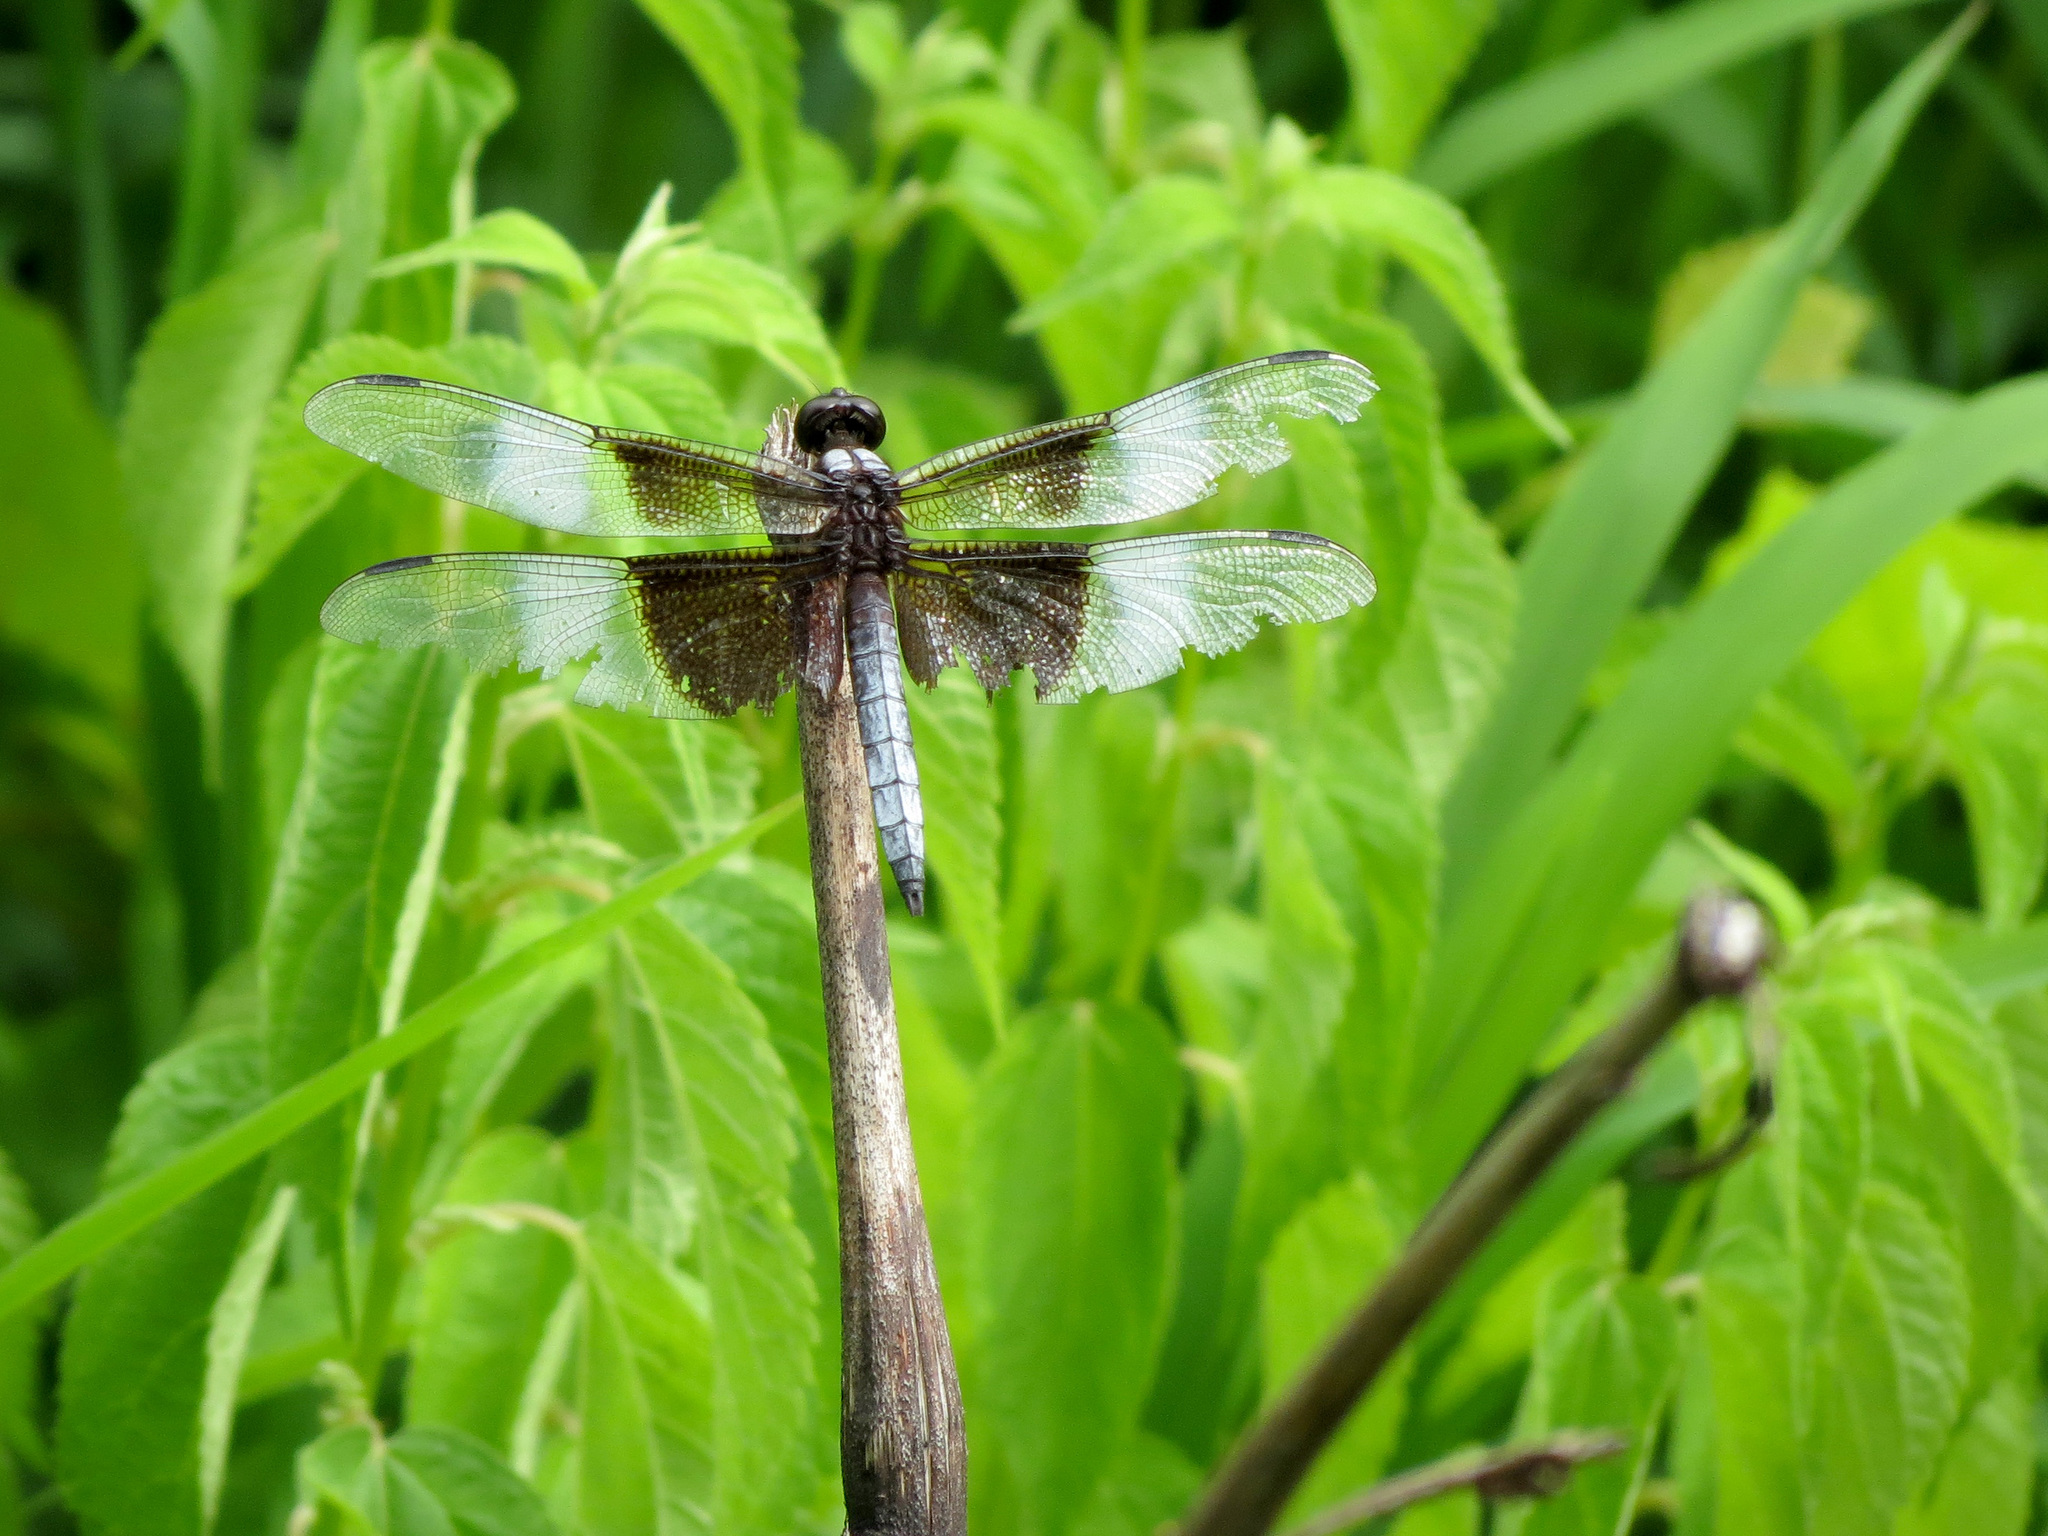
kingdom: Animalia
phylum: Arthropoda
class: Insecta
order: Odonata
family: Libellulidae
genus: Libellula
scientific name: Libellula luctuosa
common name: Widow skimmer
